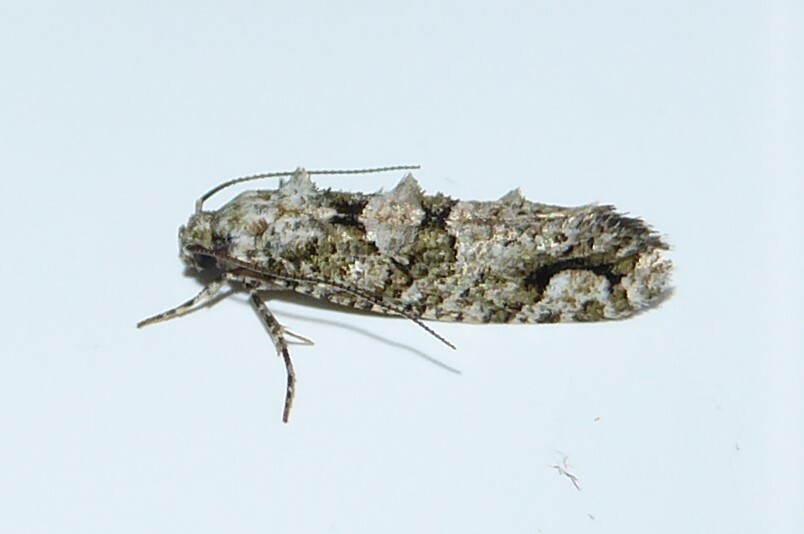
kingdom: Animalia
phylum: Arthropoda
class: Insecta
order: Lepidoptera
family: Tineidae
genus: Lysiphragma
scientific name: Lysiphragma howesii
